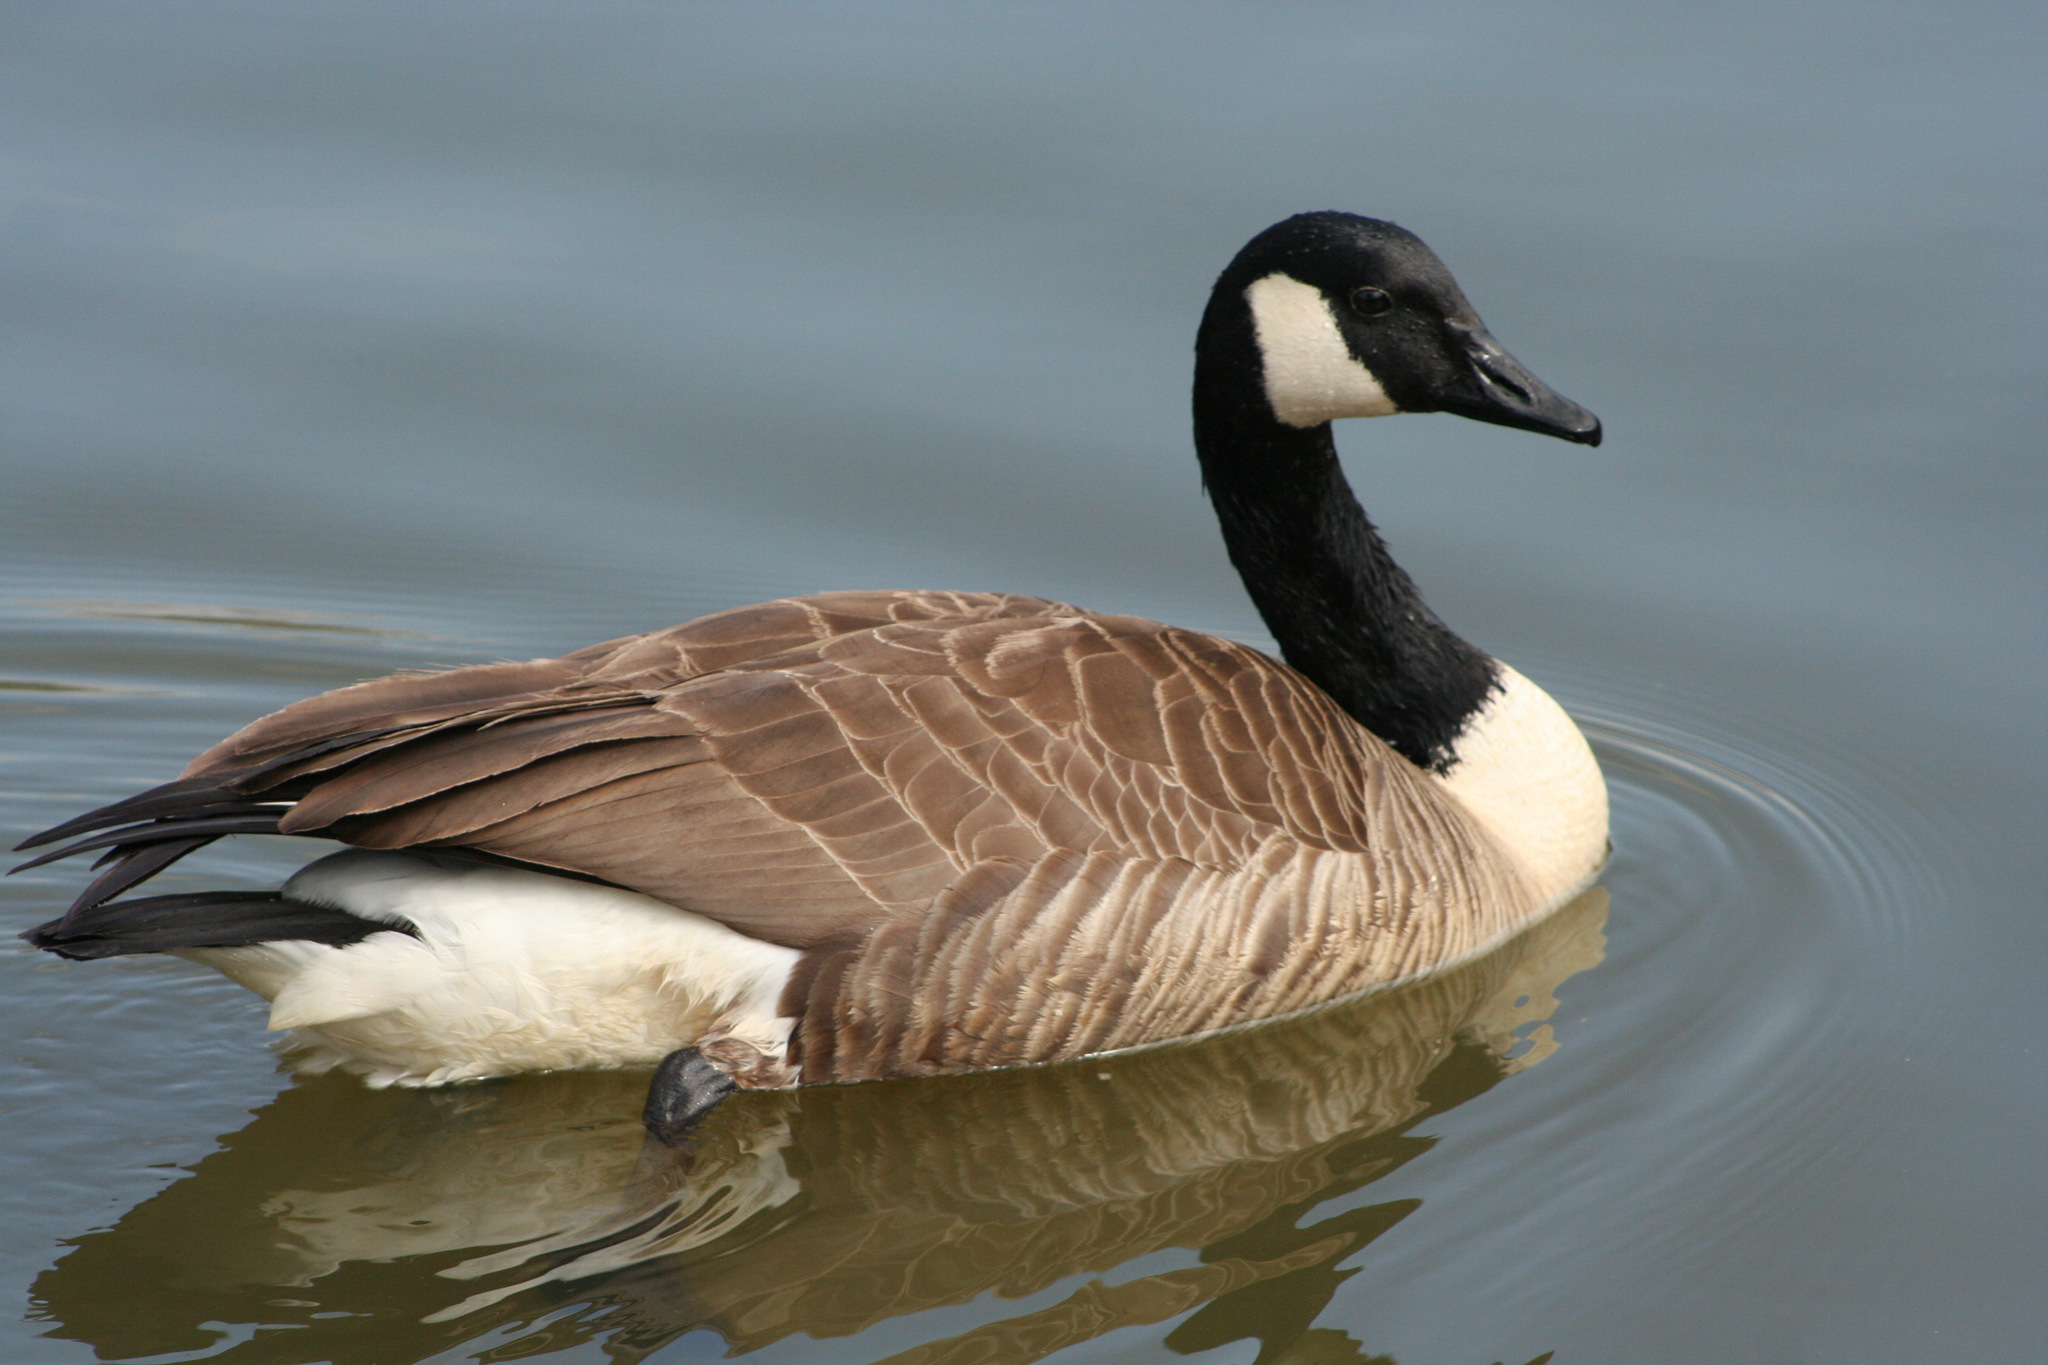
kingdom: Animalia
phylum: Chordata
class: Aves
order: Anseriformes
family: Anatidae
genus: Branta
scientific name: Branta canadensis
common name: Canada goose
